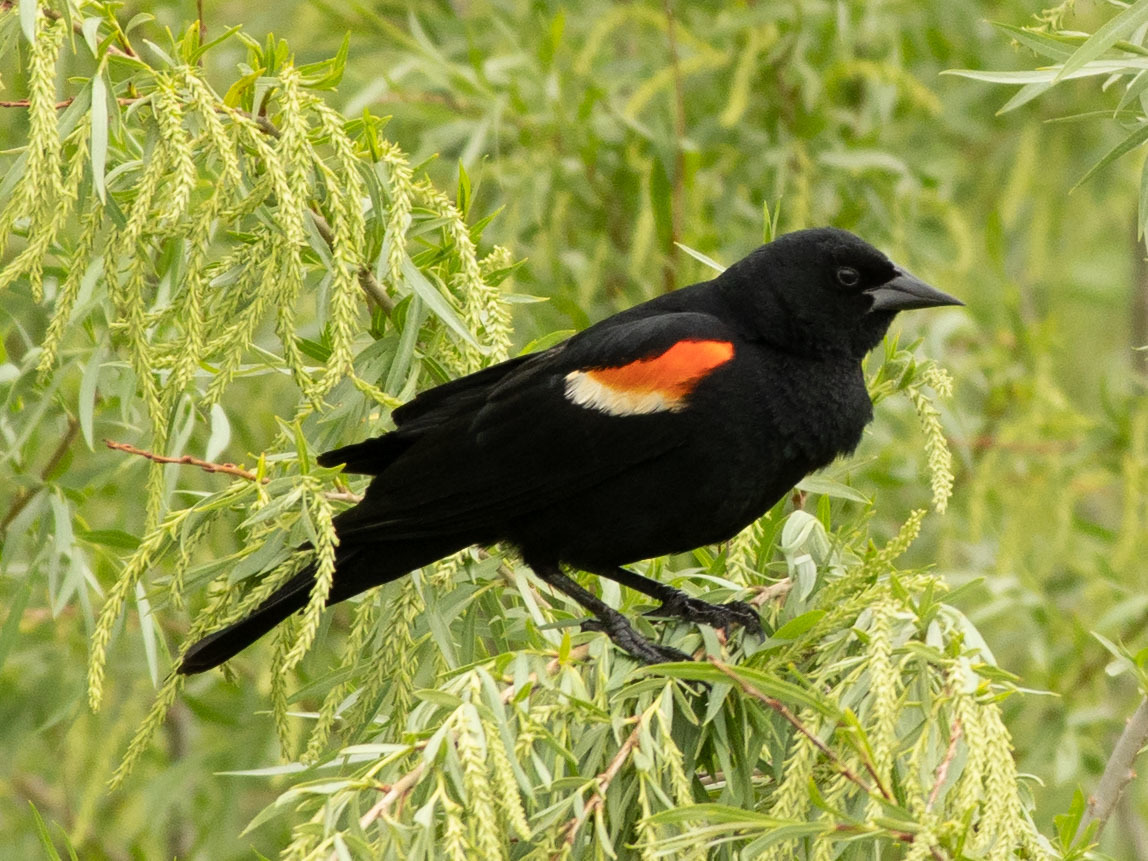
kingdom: Animalia
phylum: Chordata
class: Aves
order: Passeriformes
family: Icteridae
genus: Agelaius
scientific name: Agelaius phoeniceus
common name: Red-winged blackbird
